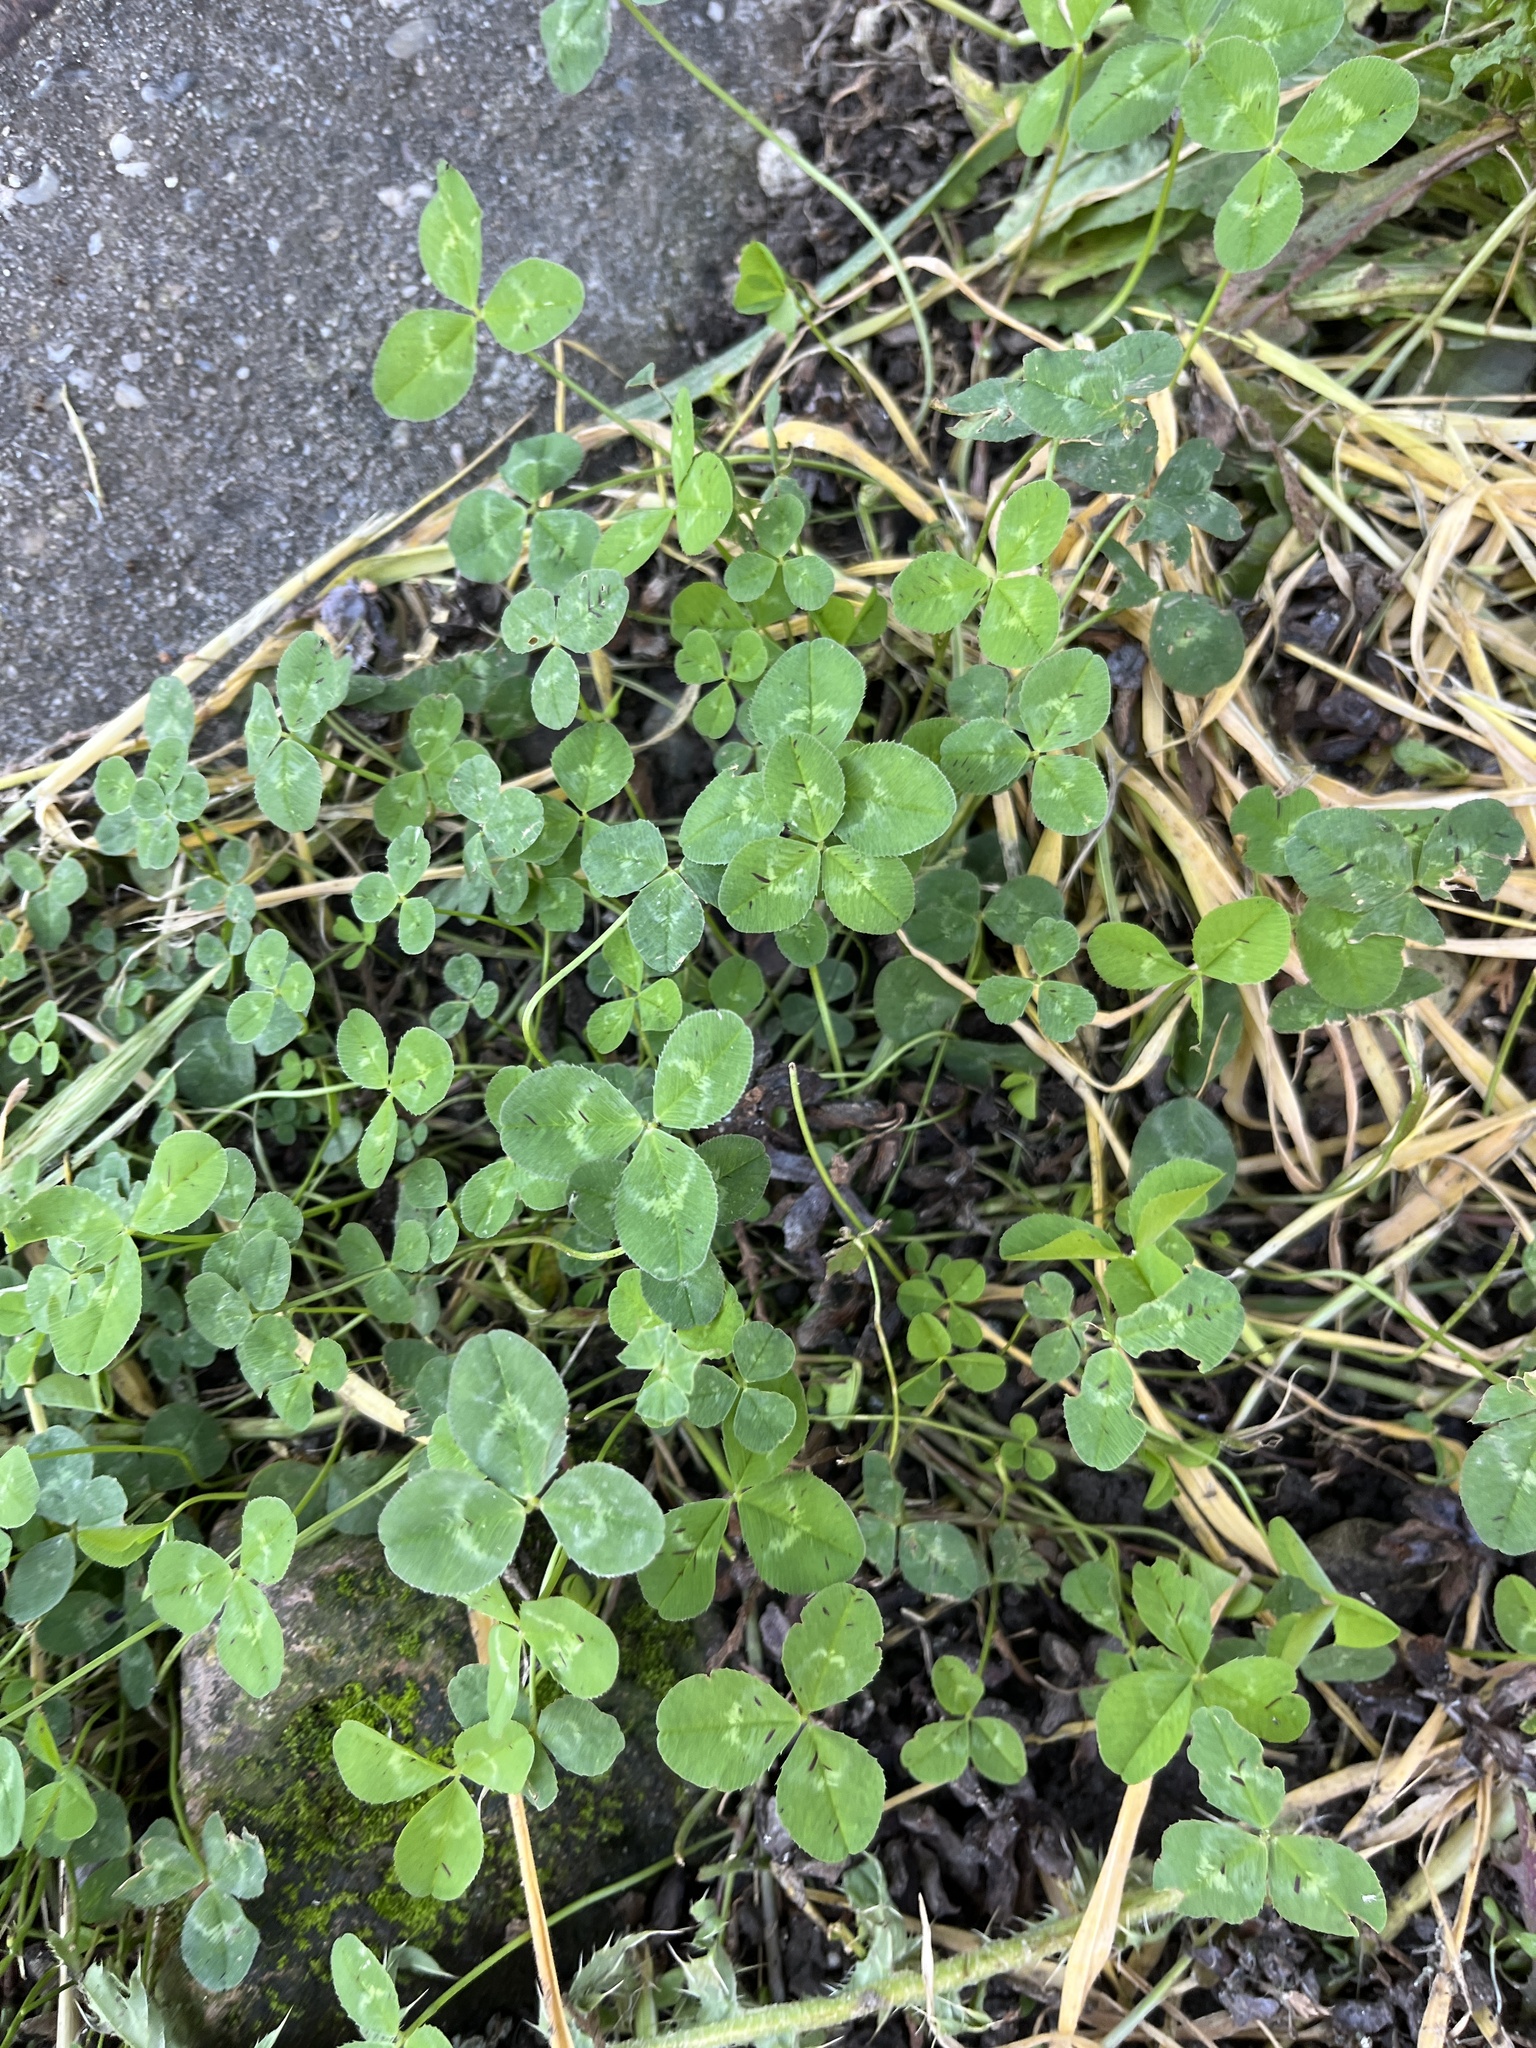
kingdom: Plantae
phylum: Tracheophyta
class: Magnoliopsida
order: Fabales
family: Fabaceae
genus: Trifolium
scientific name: Trifolium repens
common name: White clover
